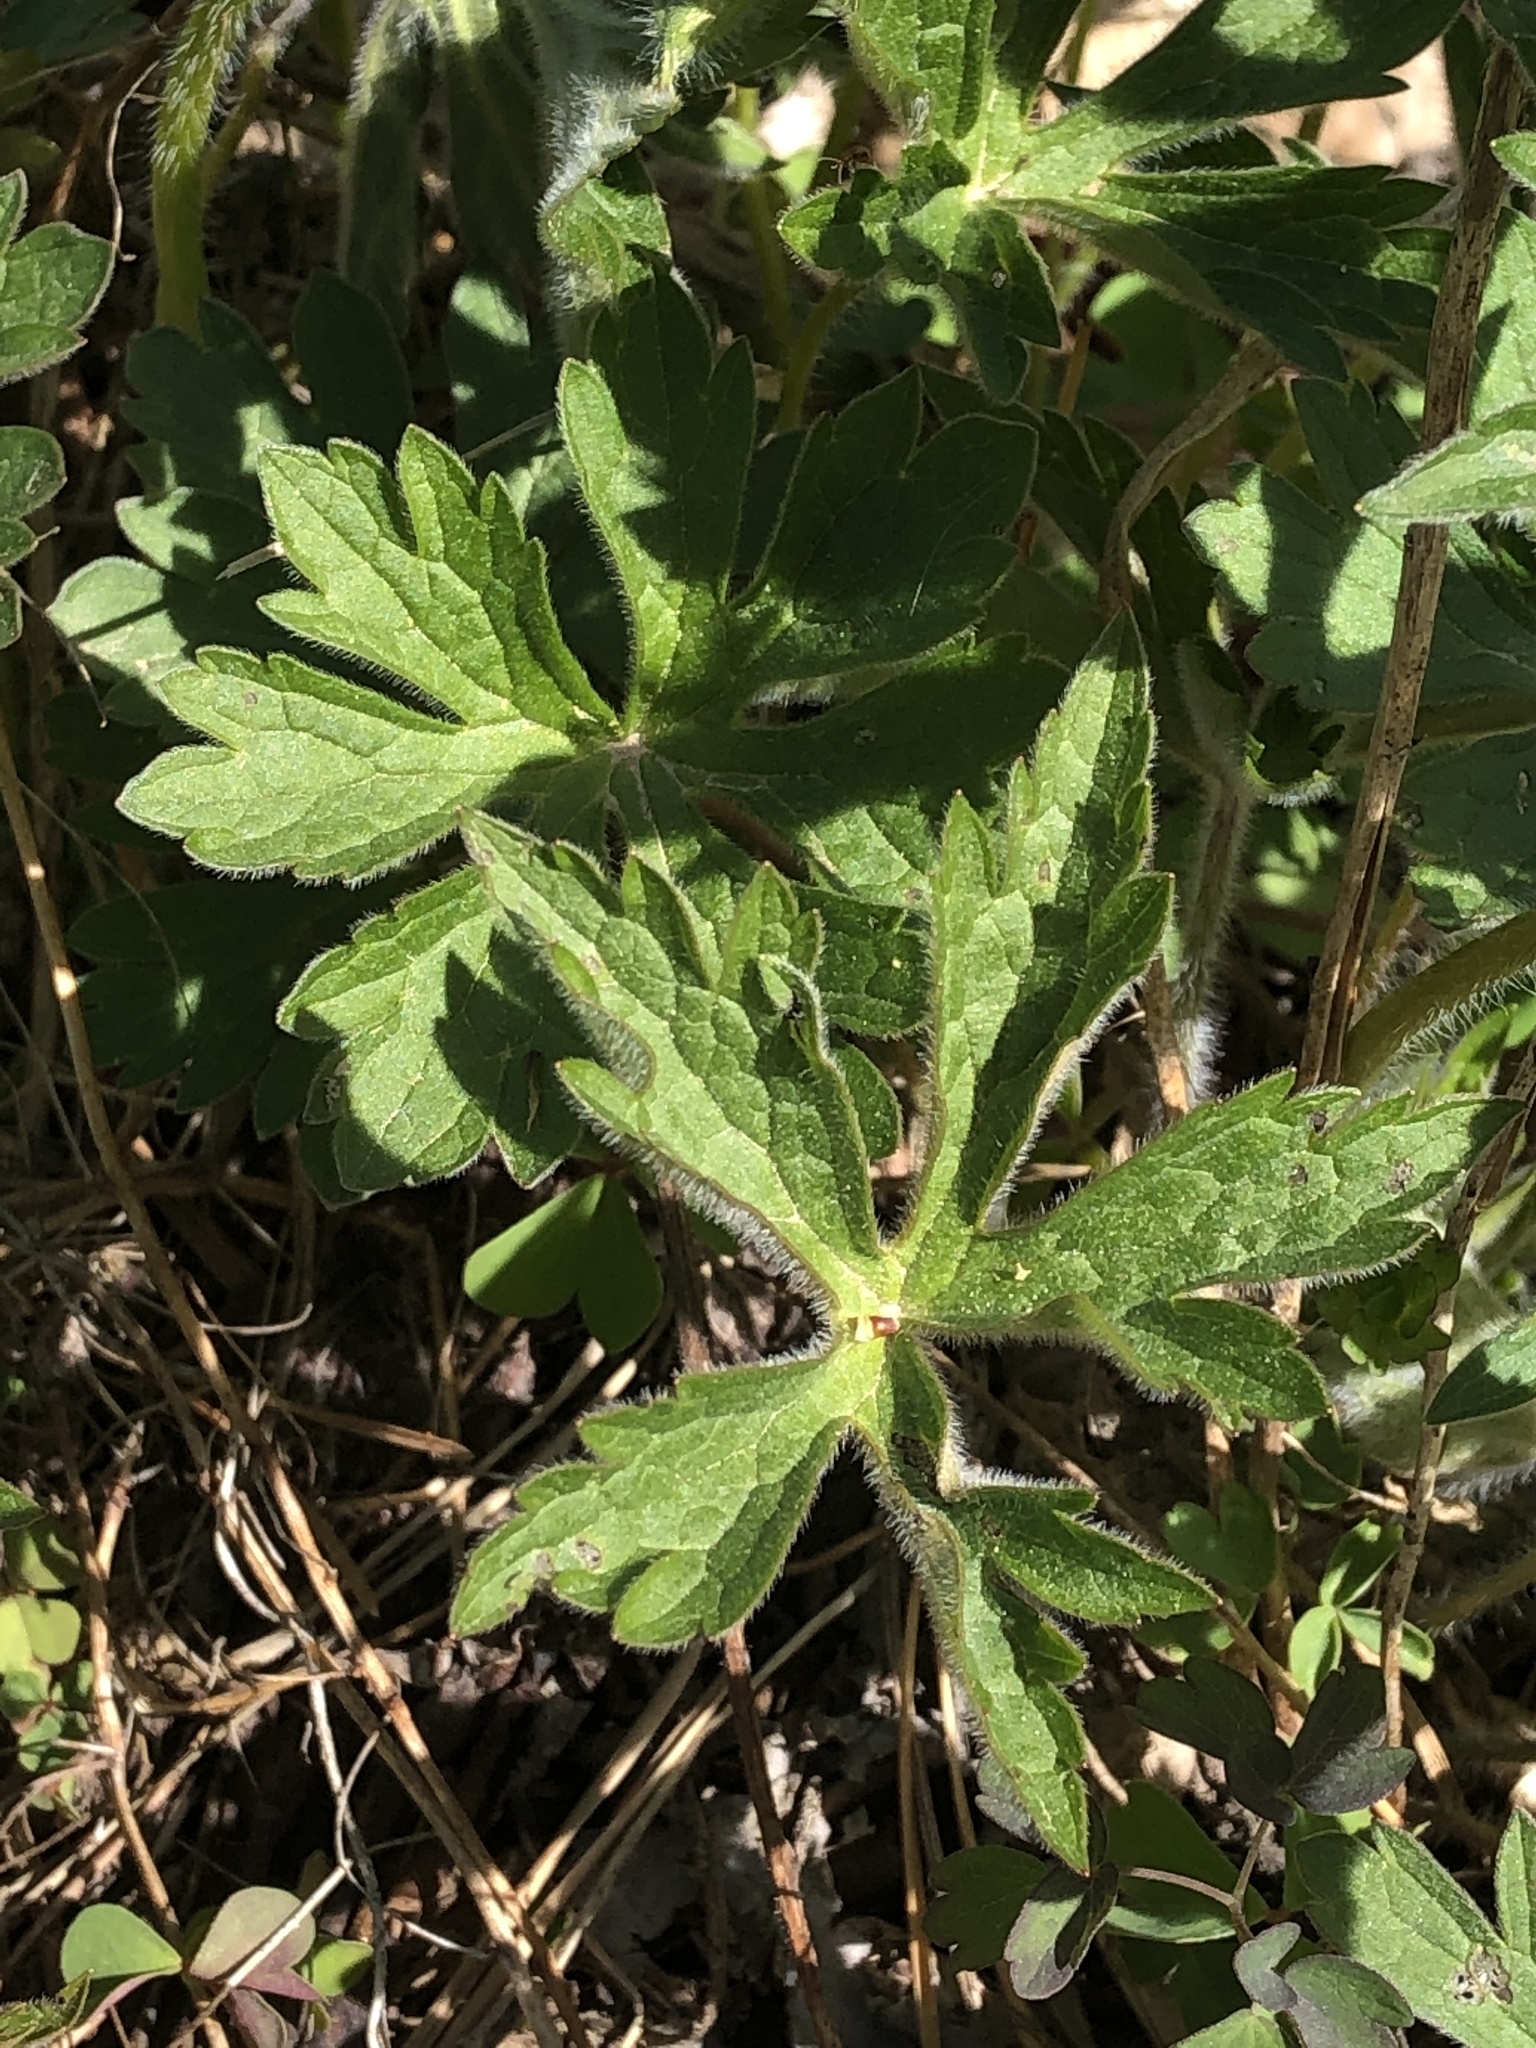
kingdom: Plantae
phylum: Tracheophyta
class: Magnoliopsida
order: Geraniales
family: Geraniaceae
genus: Geranium
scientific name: Geranium maculatum
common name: Spotted geranium
